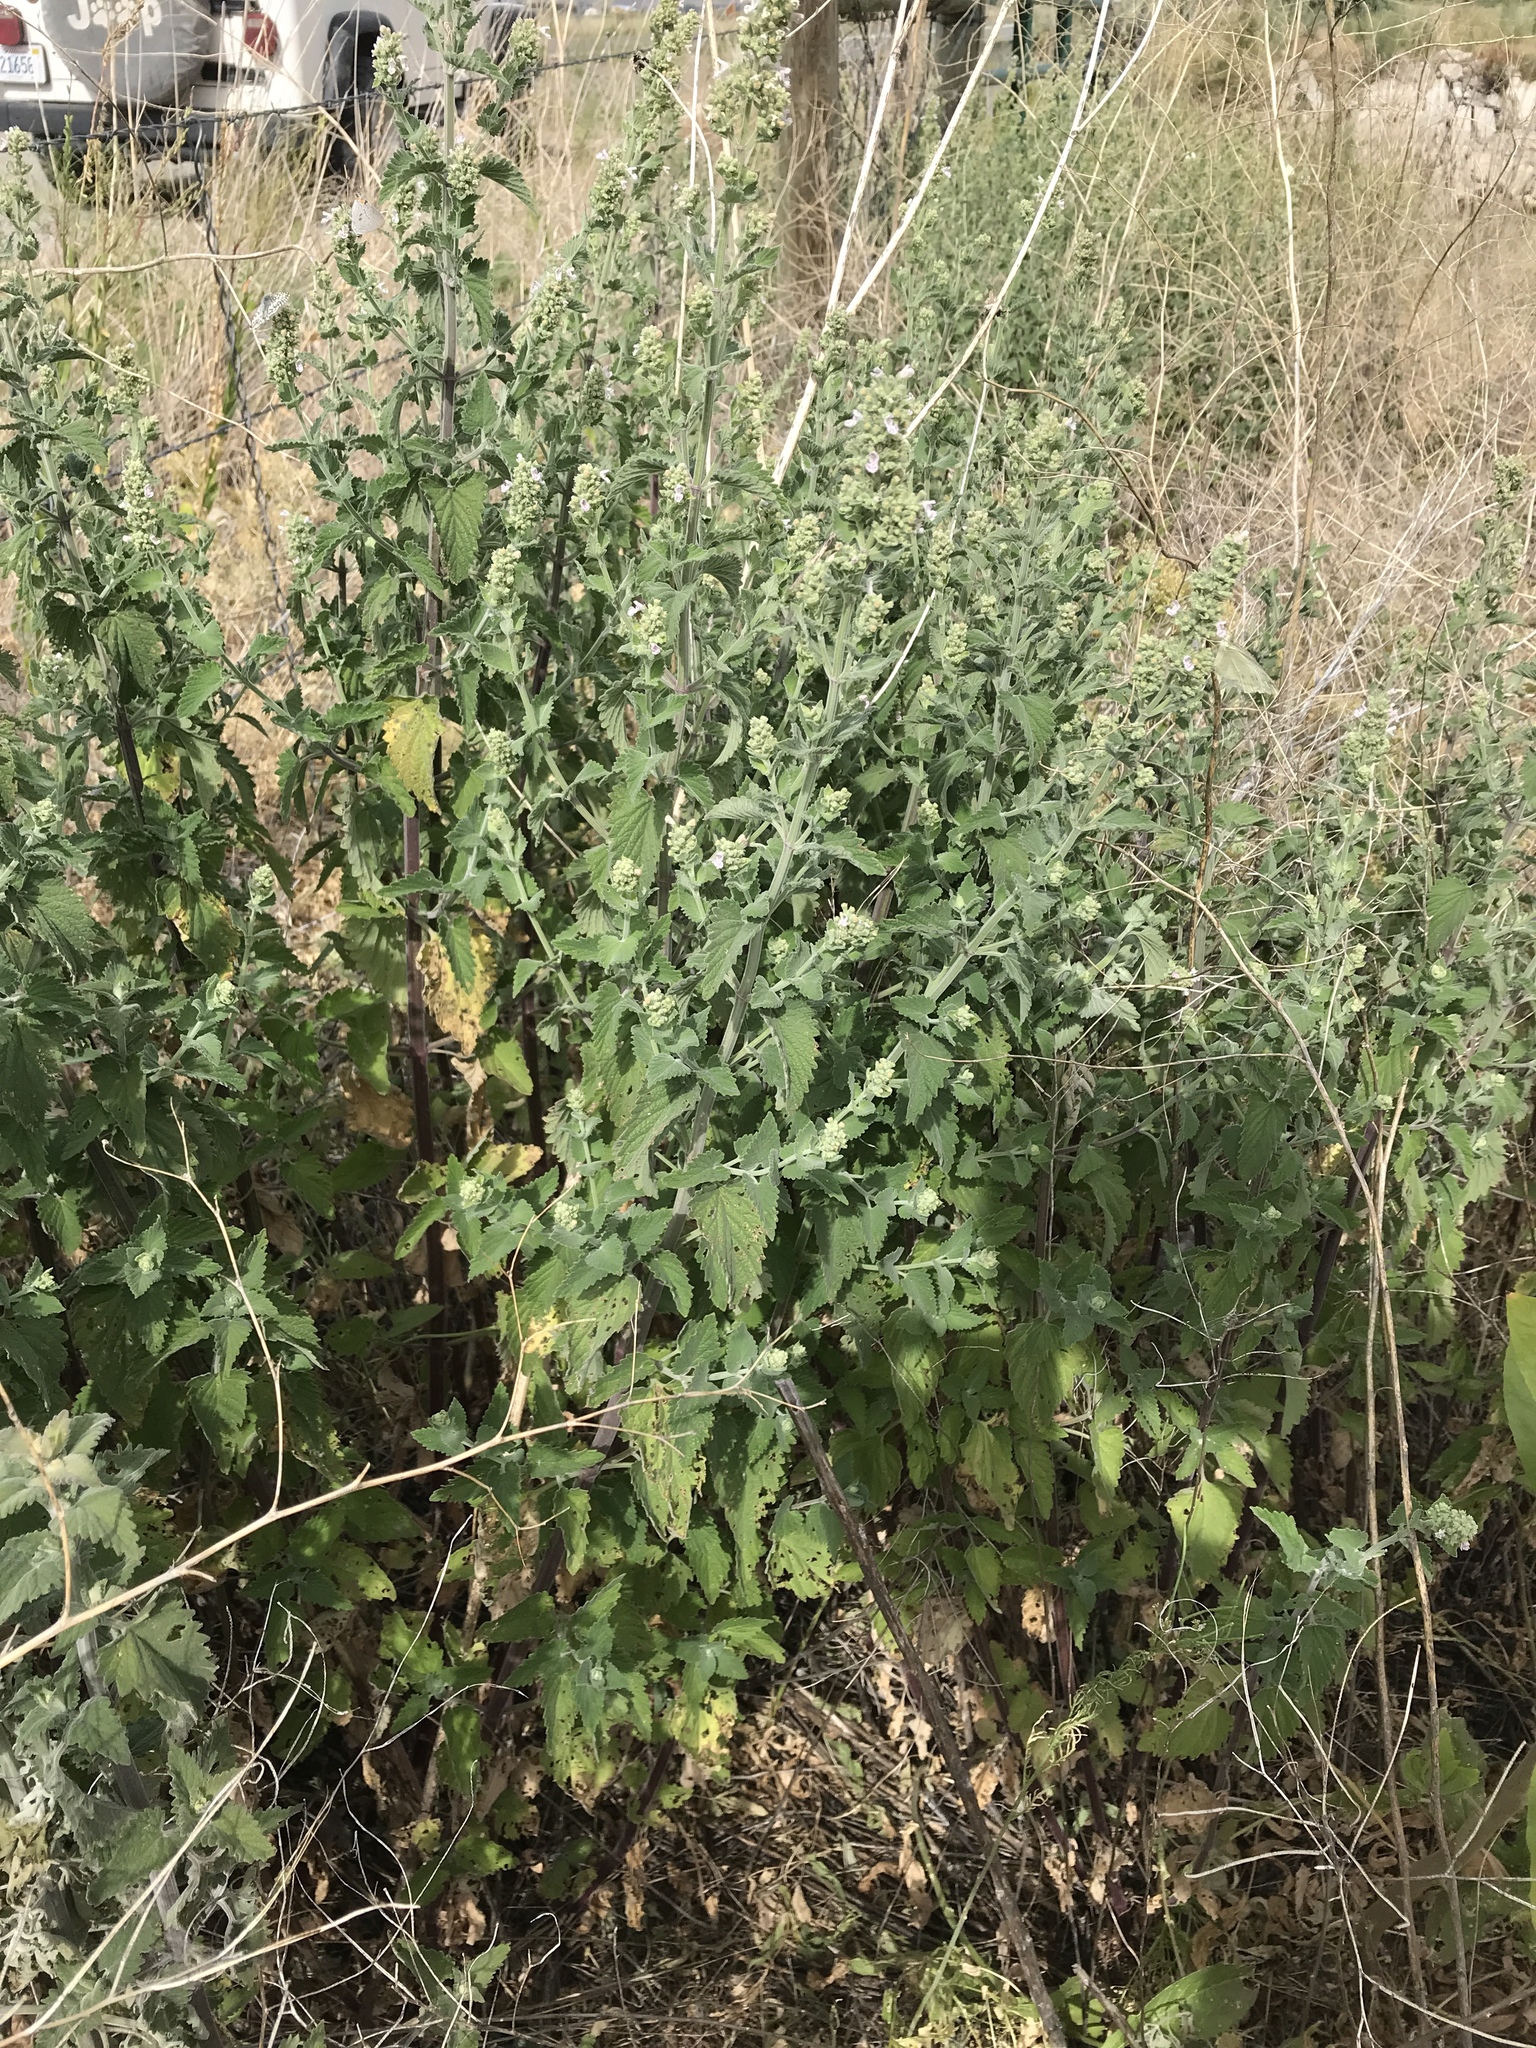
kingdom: Plantae
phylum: Tracheophyta
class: Magnoliopsida
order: Lamiales
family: Lamiaceae
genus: Nepeta
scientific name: Nepeta cataria
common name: Catnip
